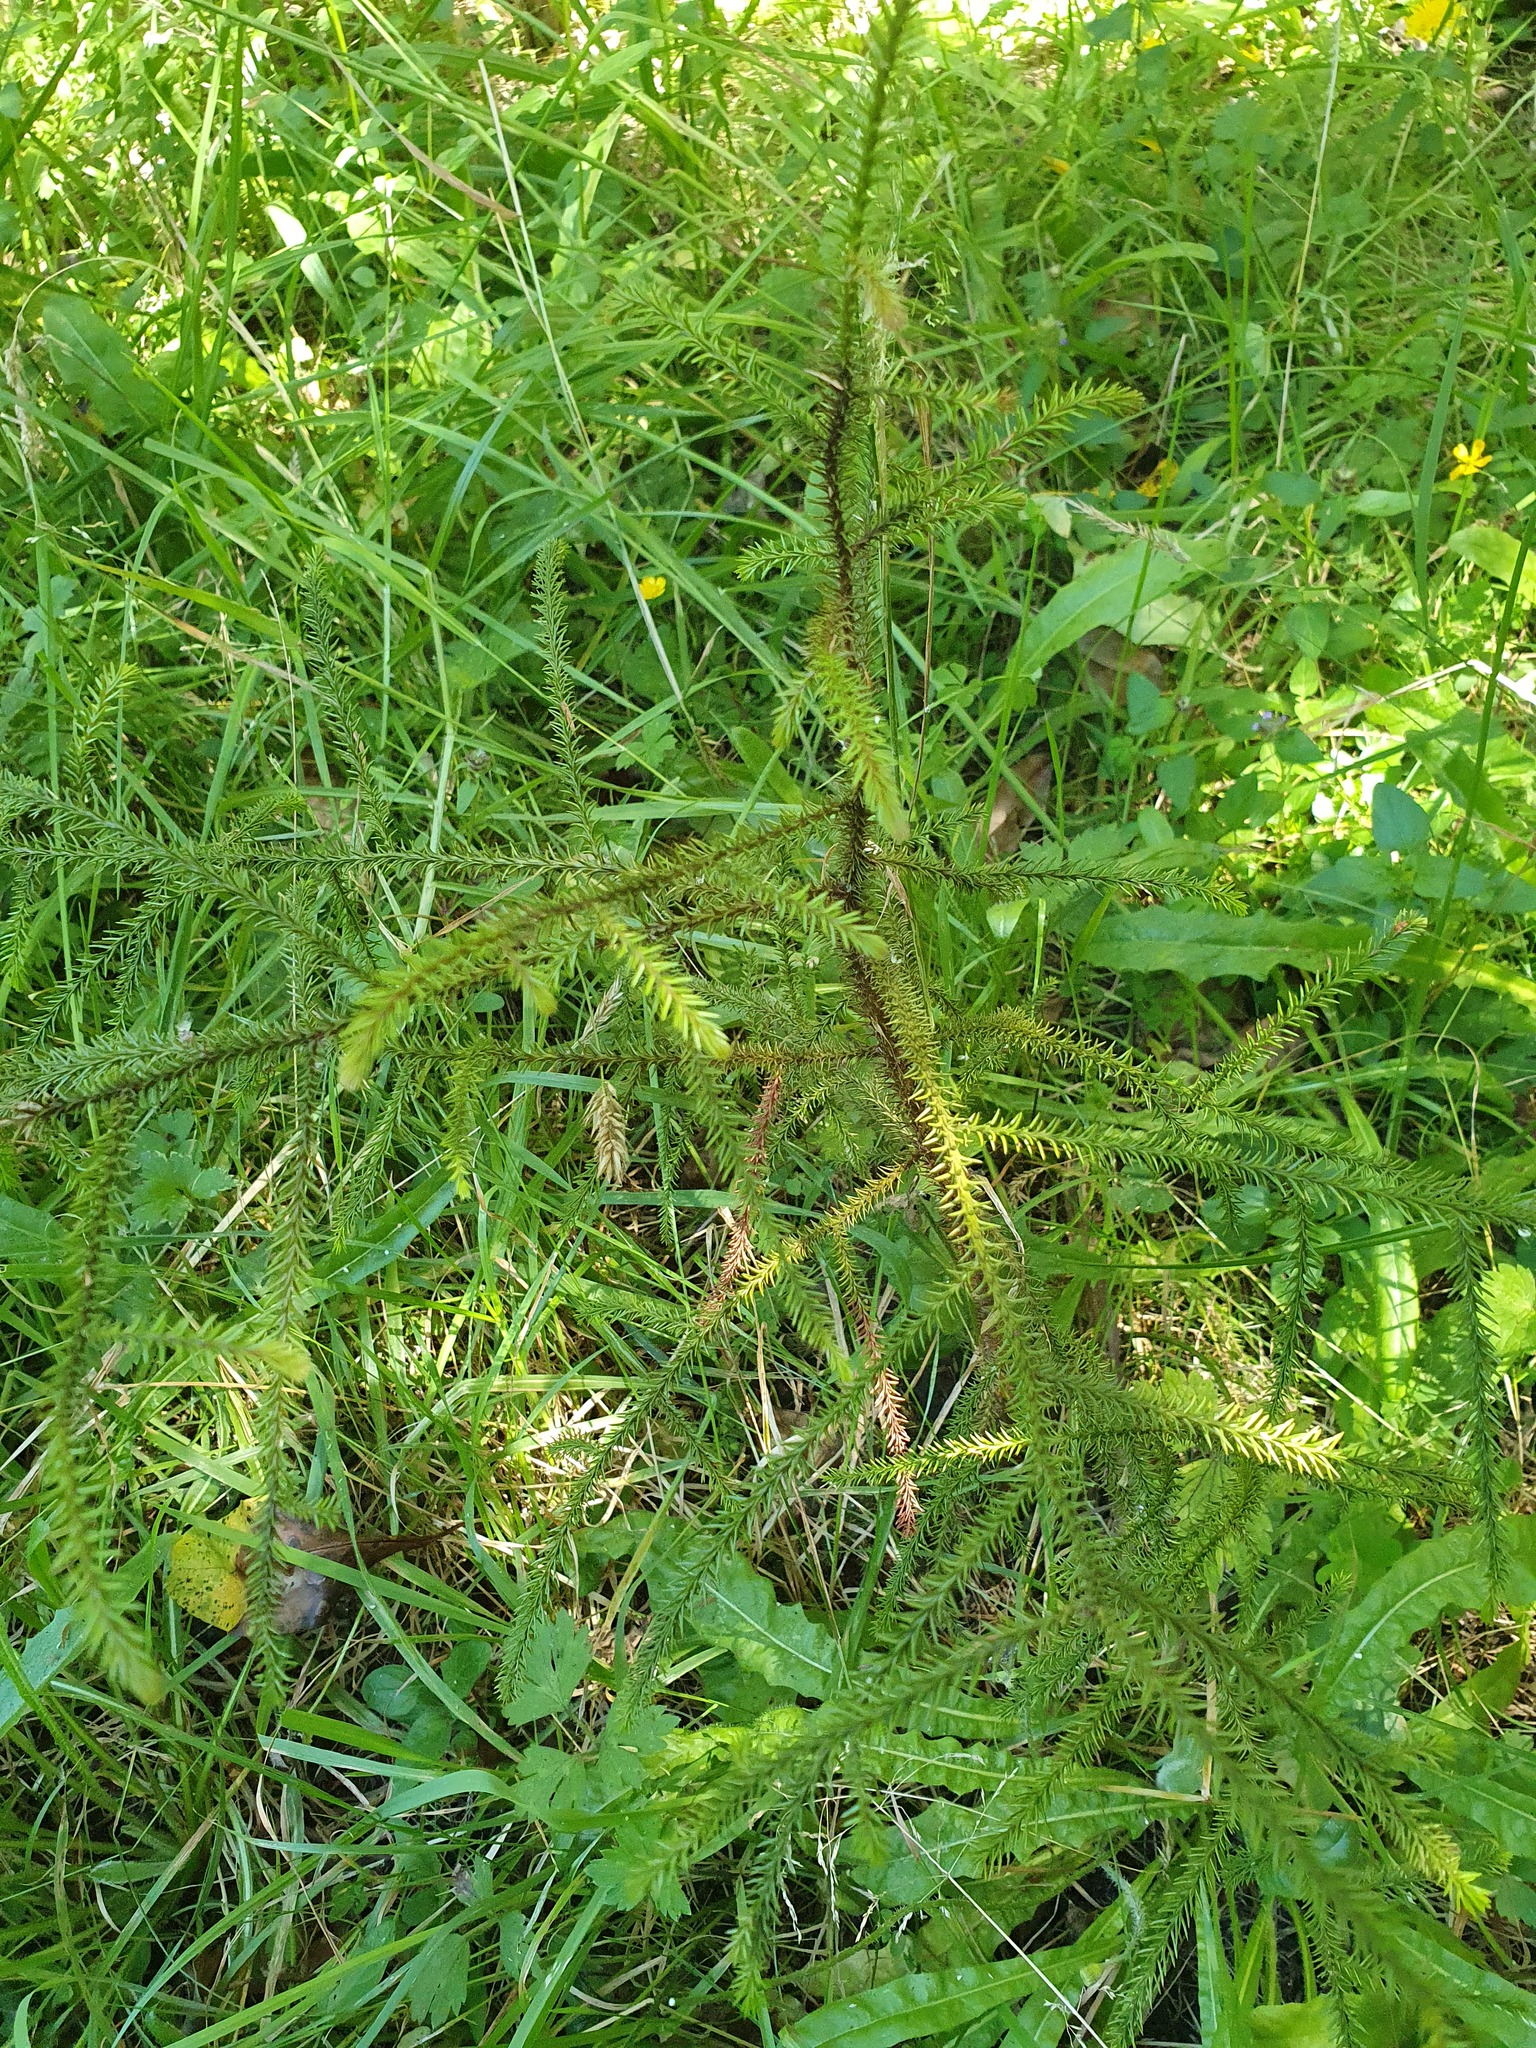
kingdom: Plantae
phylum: Tracheophyta
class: Pinopsida
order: Pinales
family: Podocarpaceae
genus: Dacrydium
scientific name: Dacrydium cupressinum
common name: Red pine
